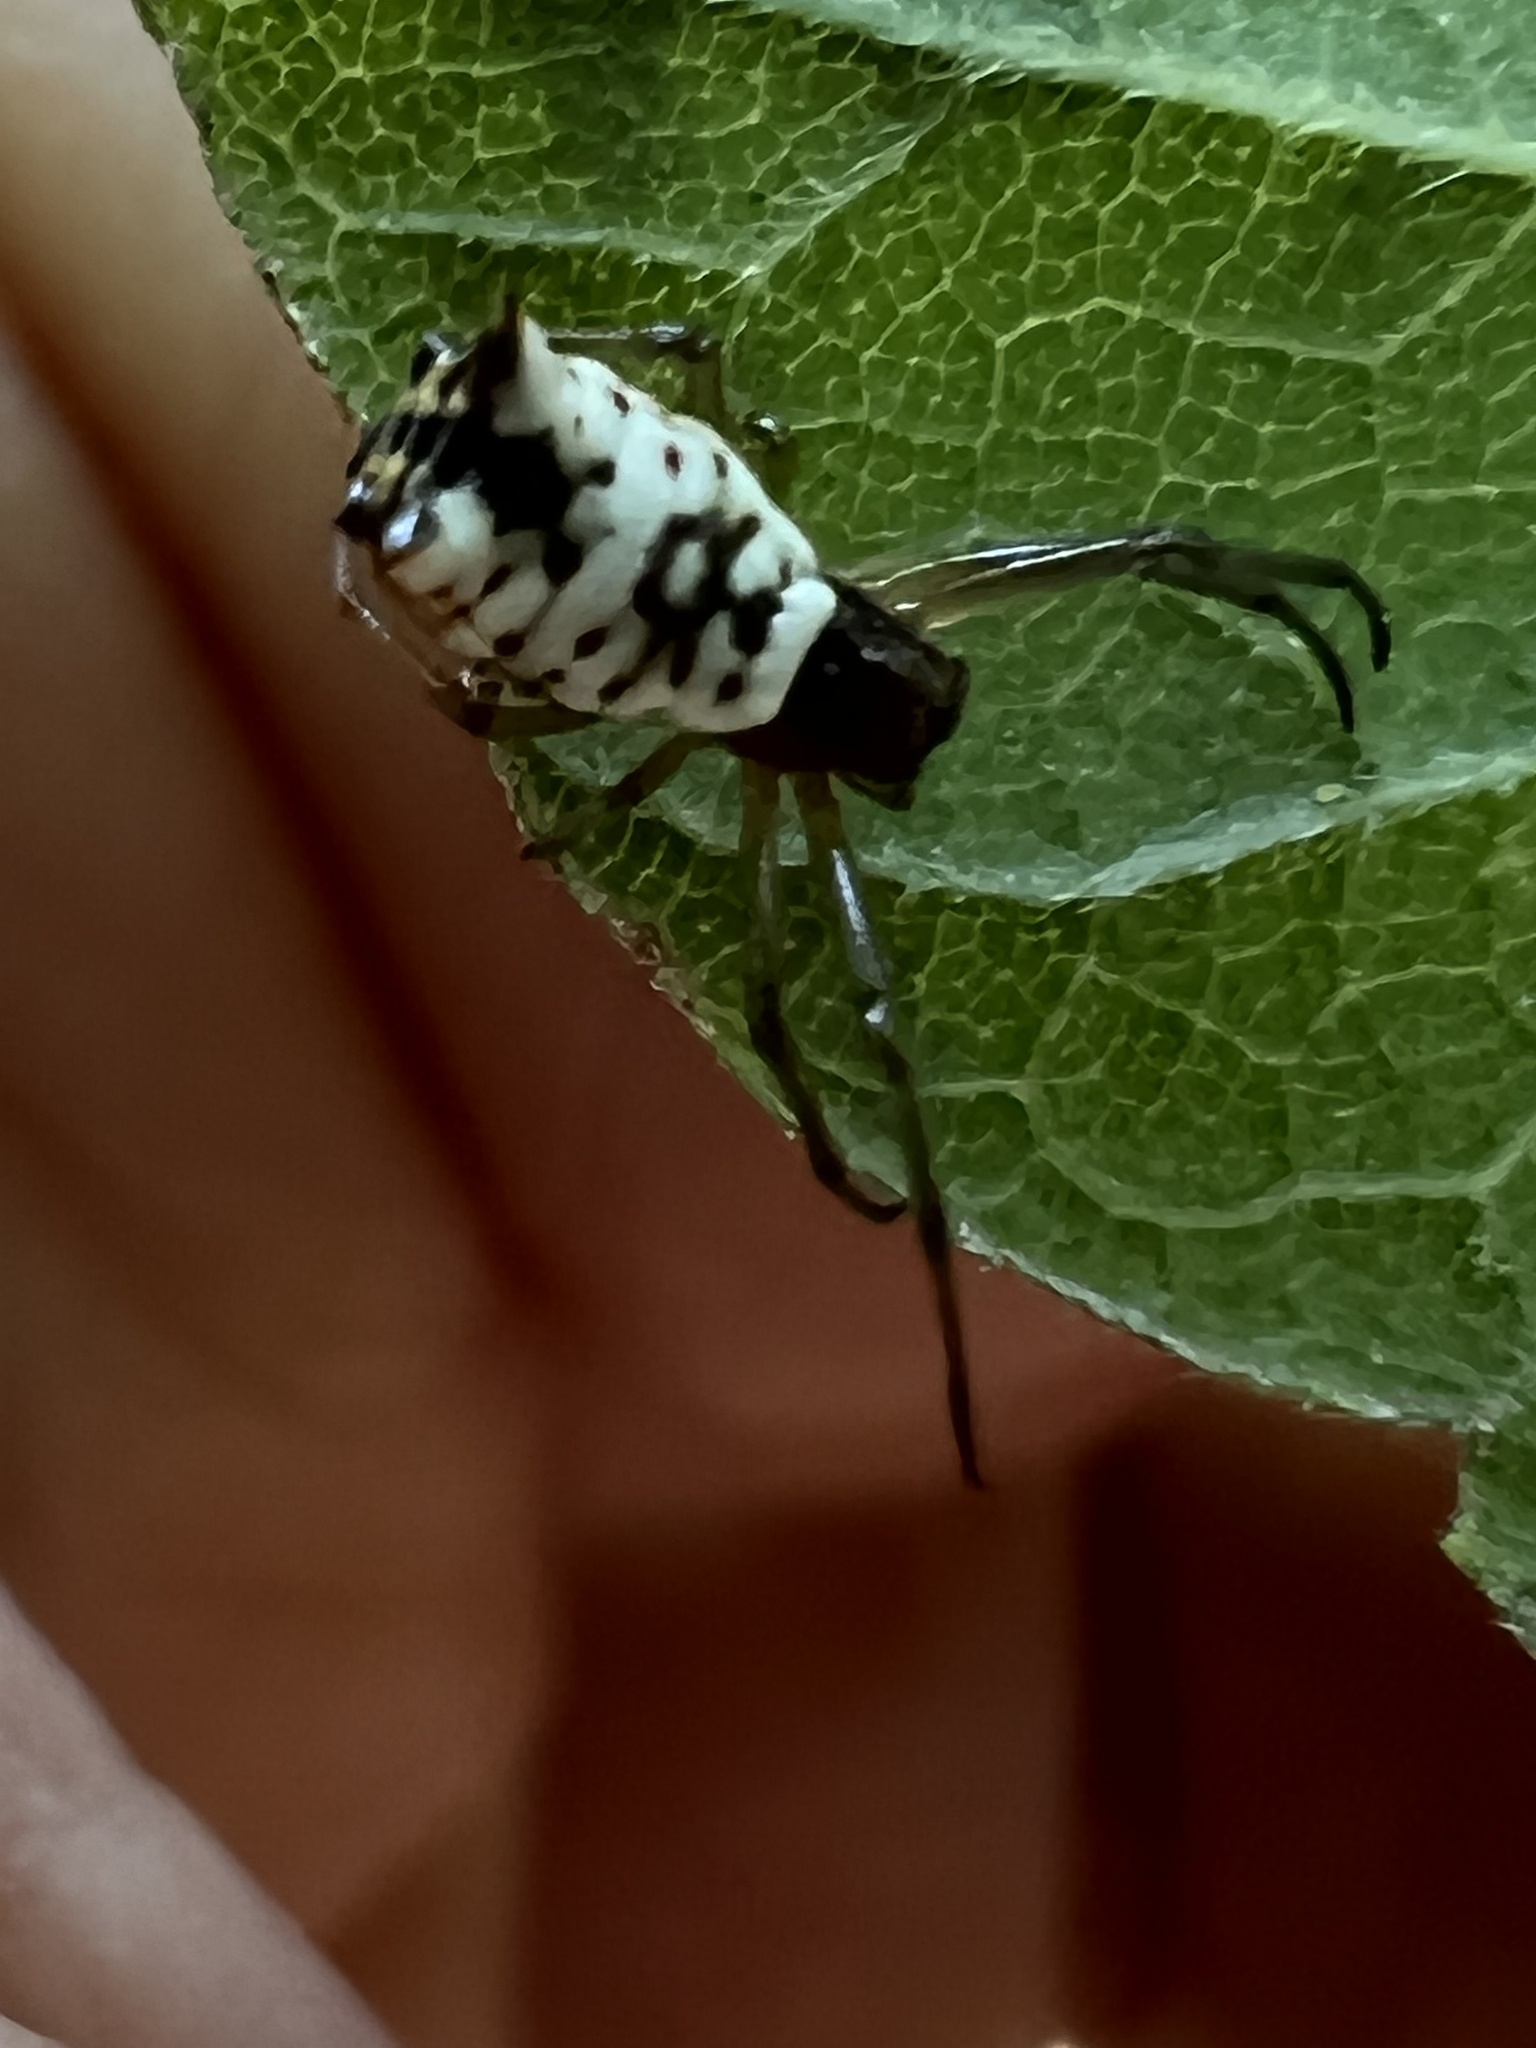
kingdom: Animalia
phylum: Arthropoda
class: Arachnida
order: Araneae
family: Araneidae
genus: Micrathena
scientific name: Micrathena mitrata
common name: Orb weavers
